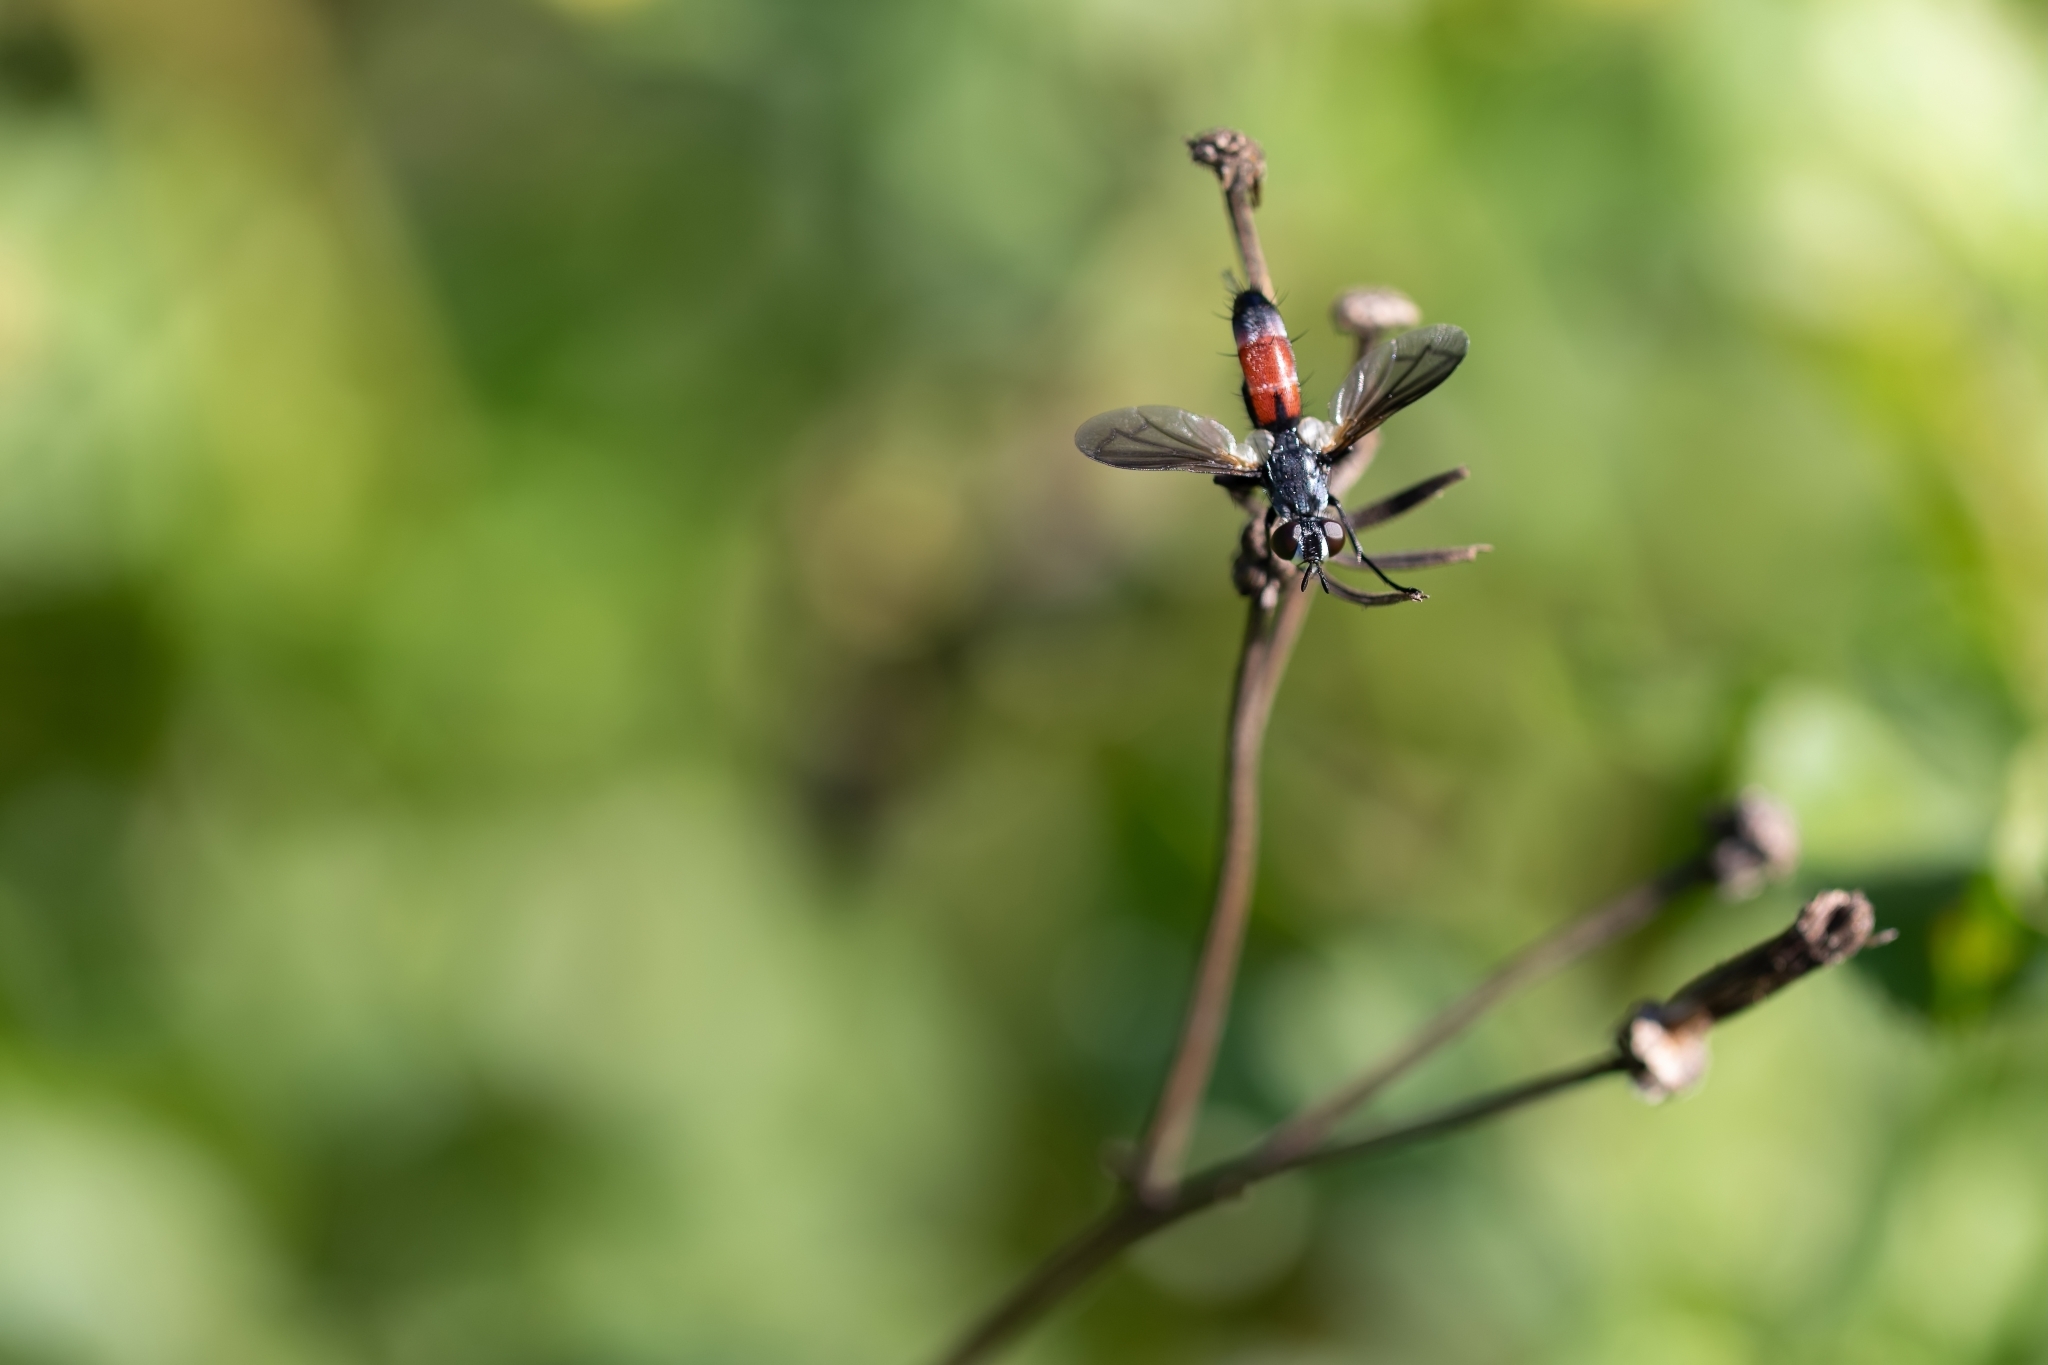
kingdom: Animalia
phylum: Arthropoda
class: Insecta
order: Diptera
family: Tachinidae
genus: Cylindromyia
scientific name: Cylindromyia
